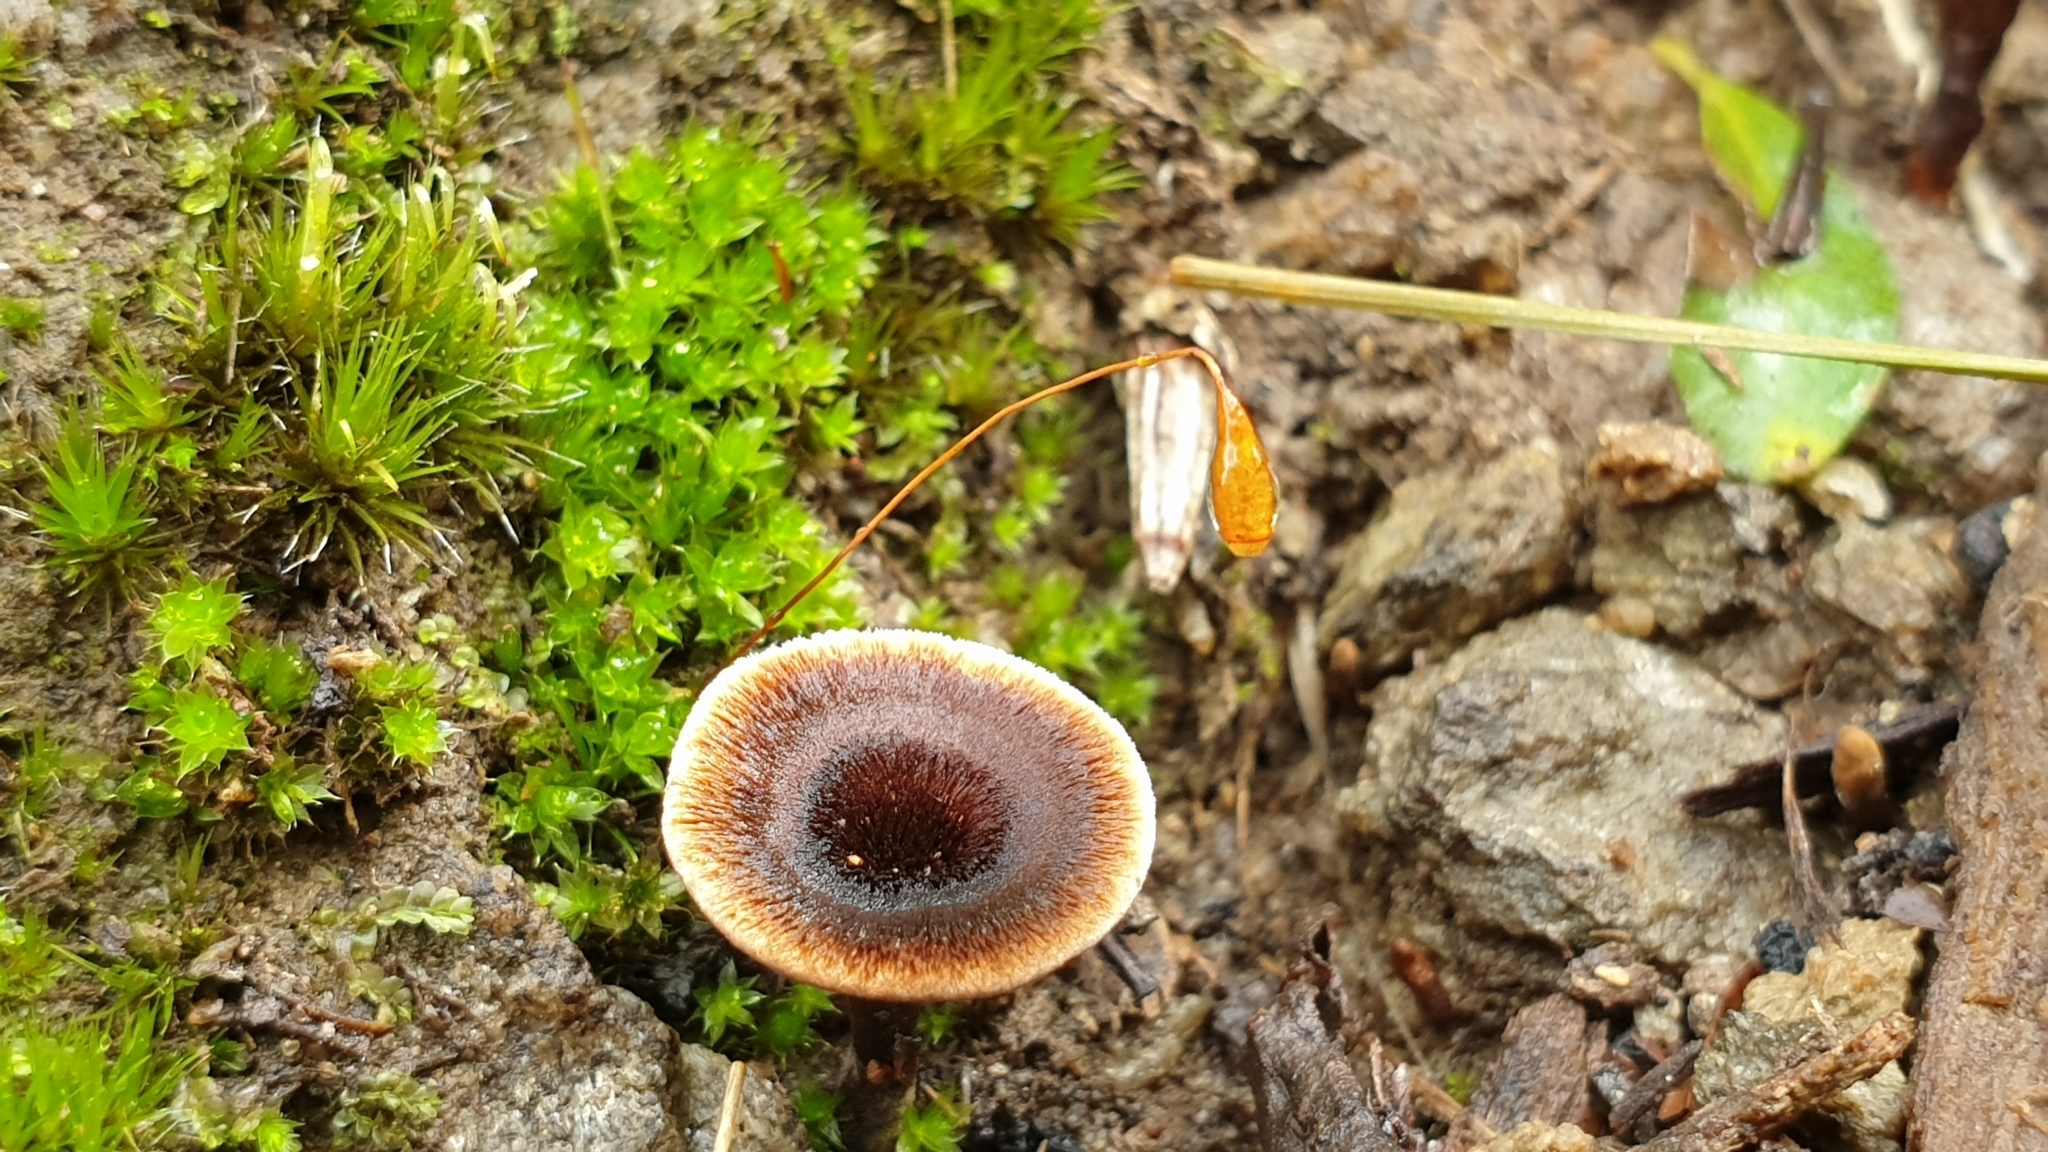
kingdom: Fungi
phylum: Basidiomycota
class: Agaricomycetes
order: Hymenochaetales
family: Hymenochaetaceae
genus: Coltricia
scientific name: Coltricia australica
